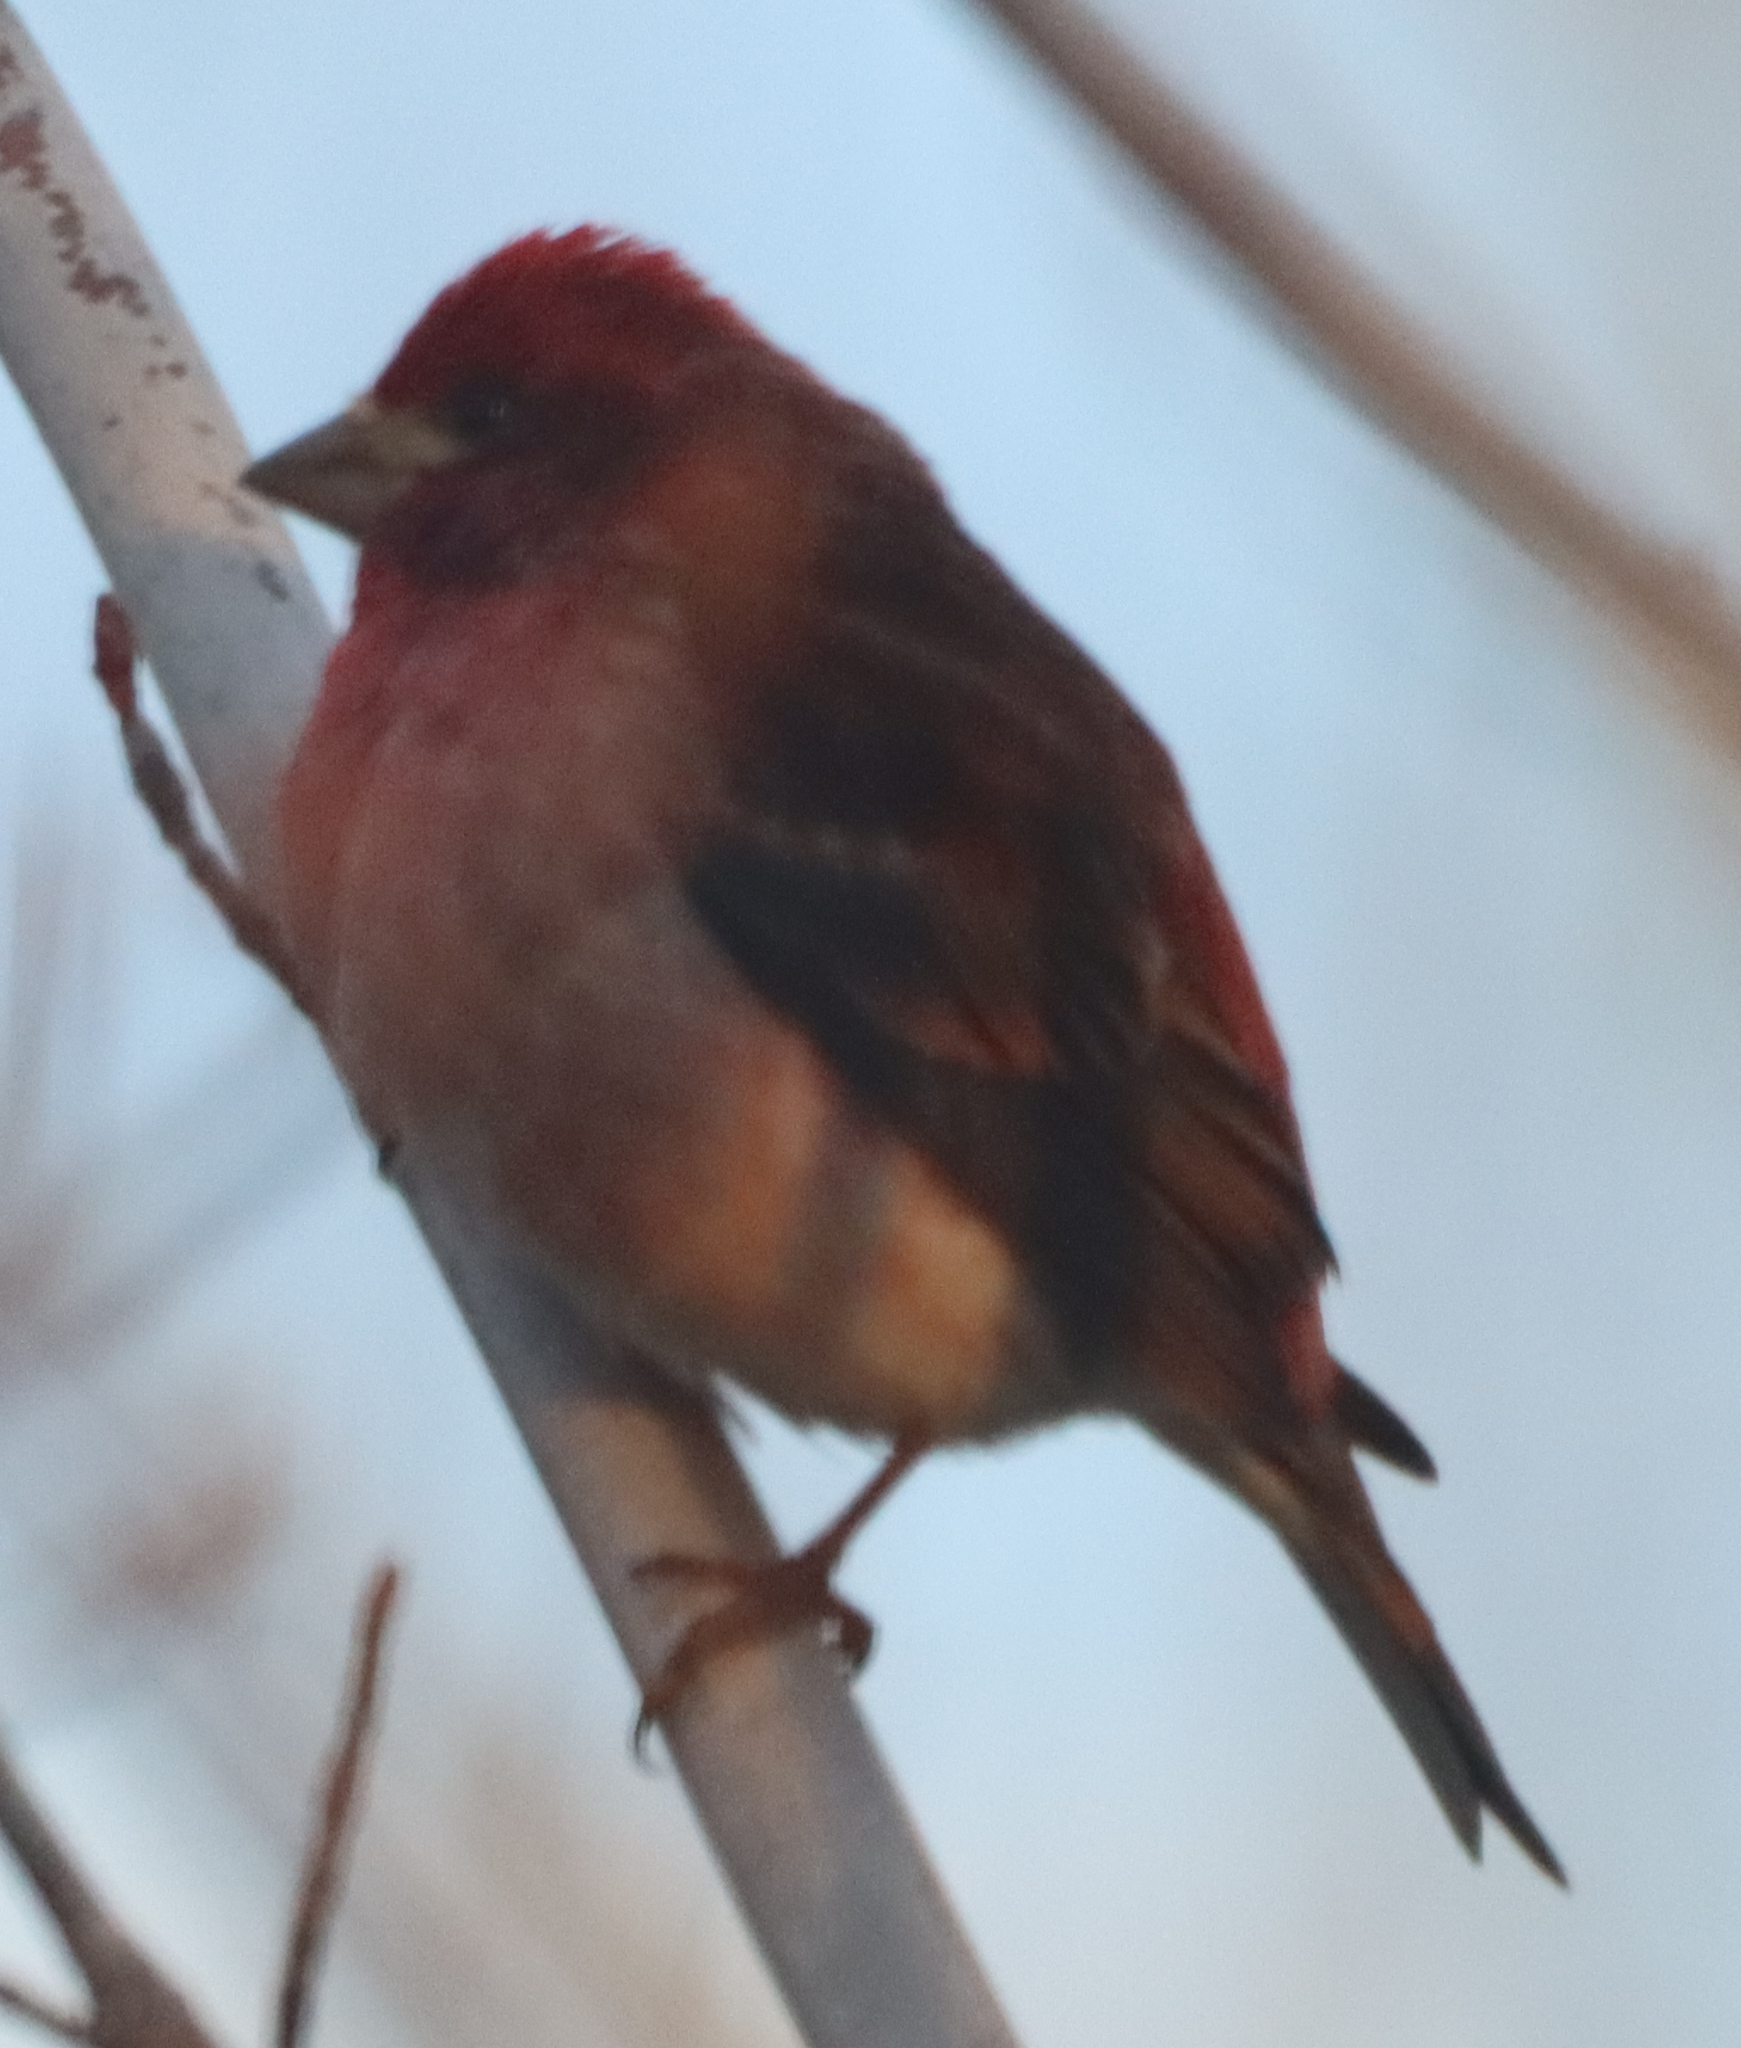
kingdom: Animalia
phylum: Chordata
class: Aves
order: Passeriformes
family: Fringillidae
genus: Haemorhous
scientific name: Haemorhous purpureus
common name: Purple finch
